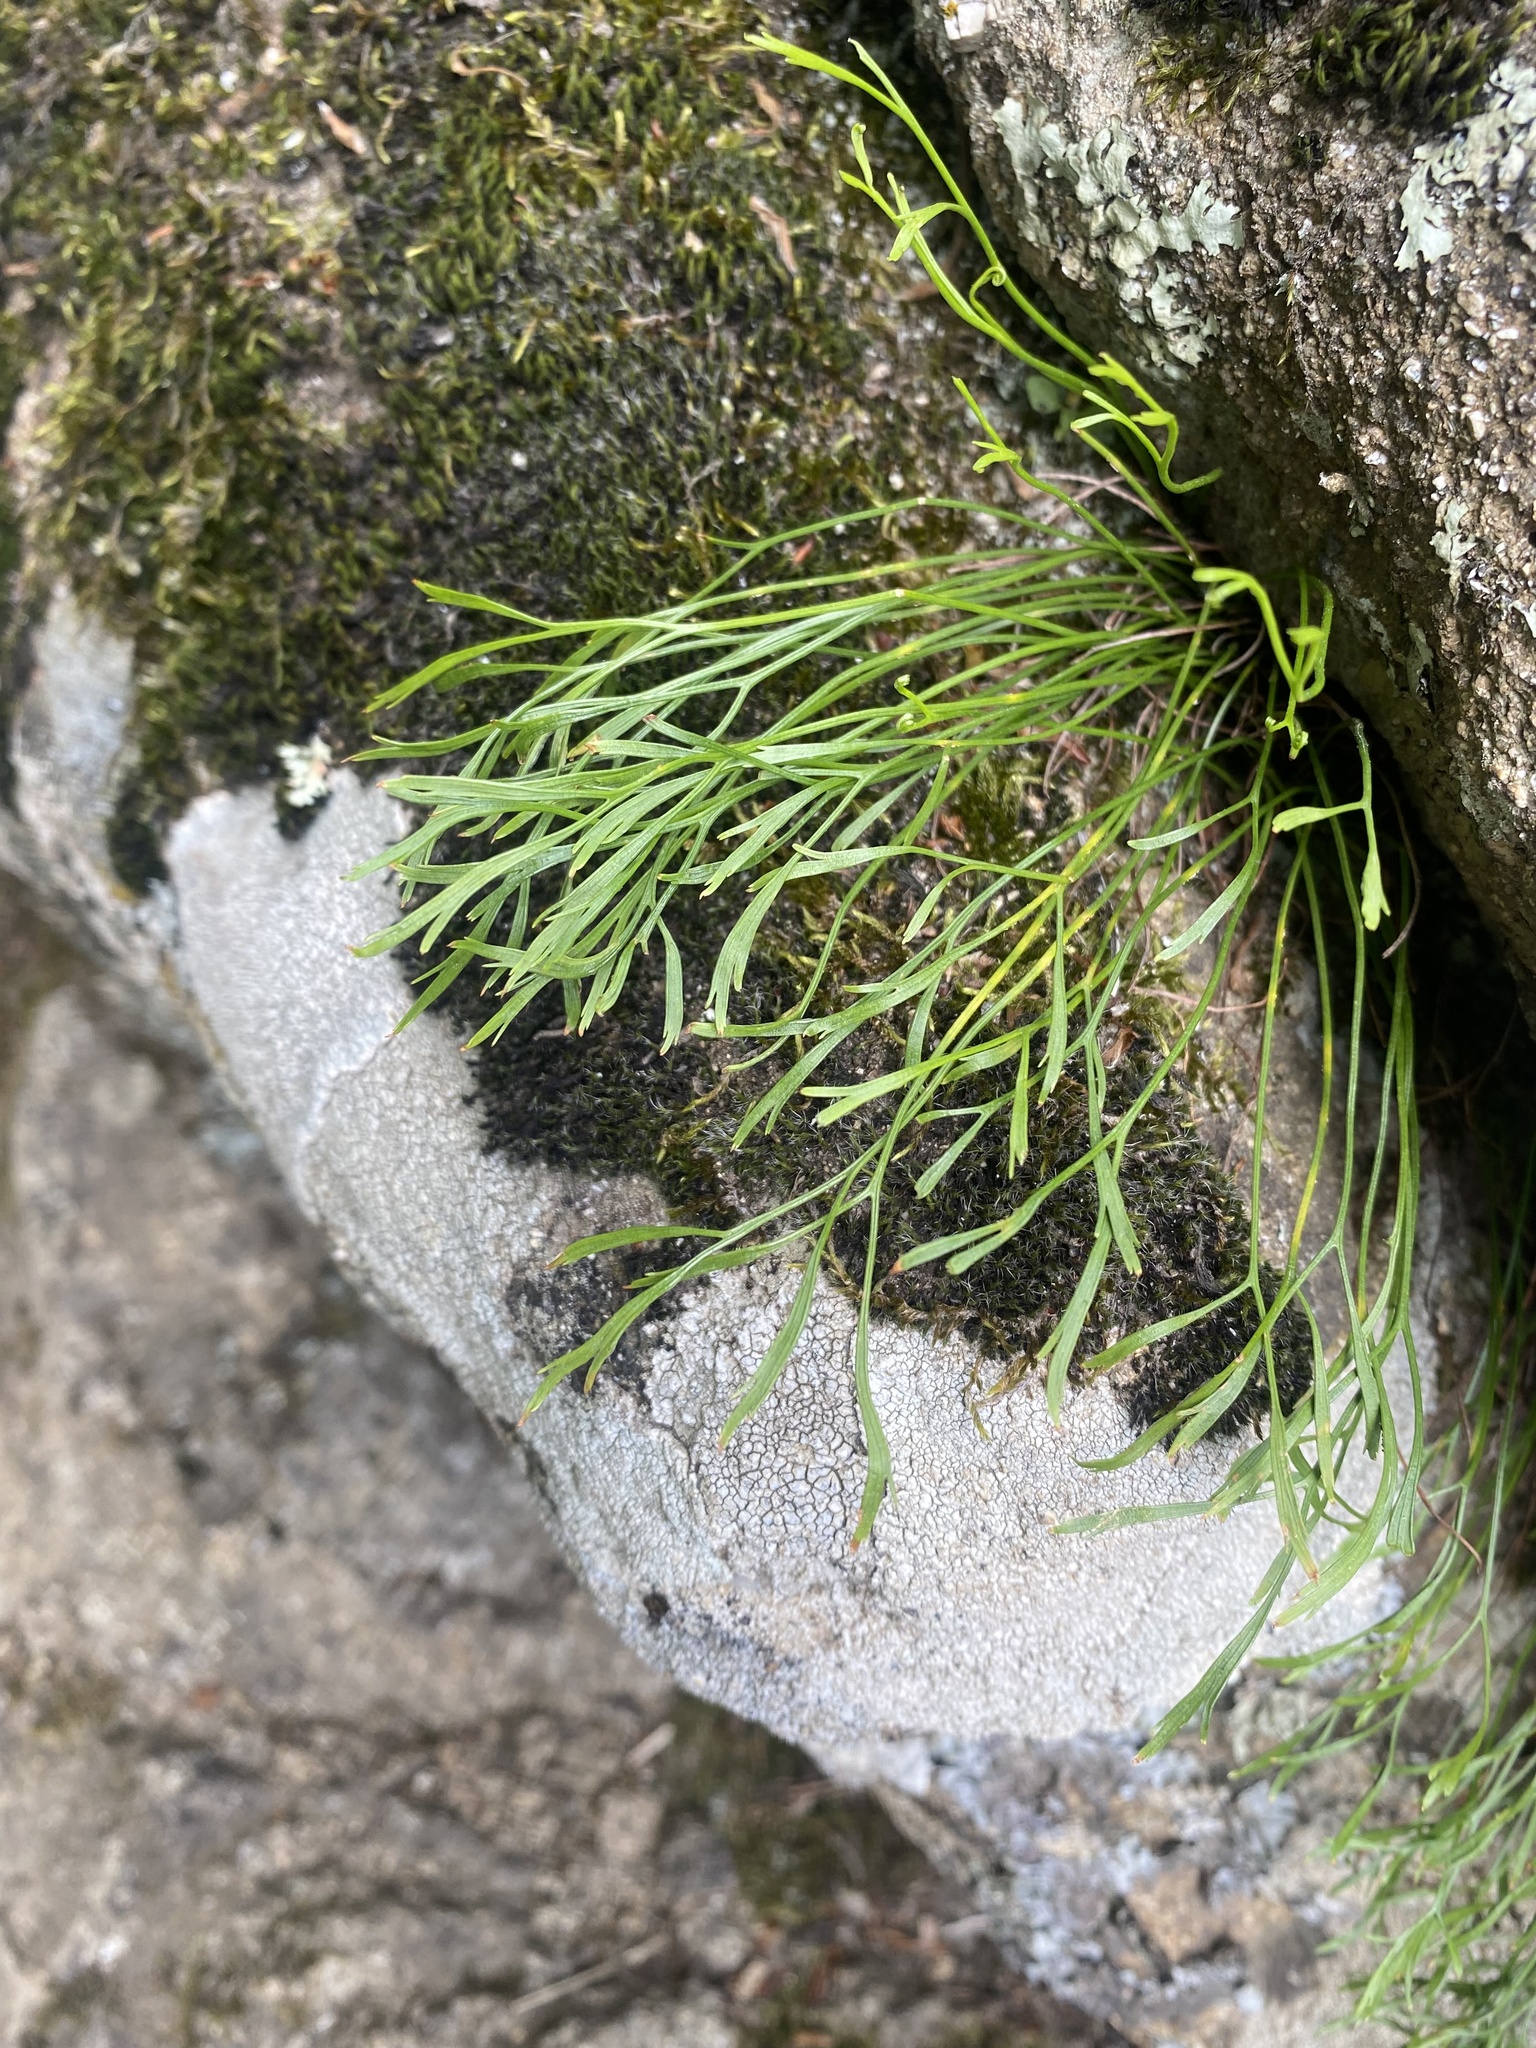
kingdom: Plantae
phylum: Tracheophyta
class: Polypodiopsida
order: Polypodiales
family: Aspleniaceae
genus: Asplenium
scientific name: Asplenium septentrionale
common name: Forked spleenwort
